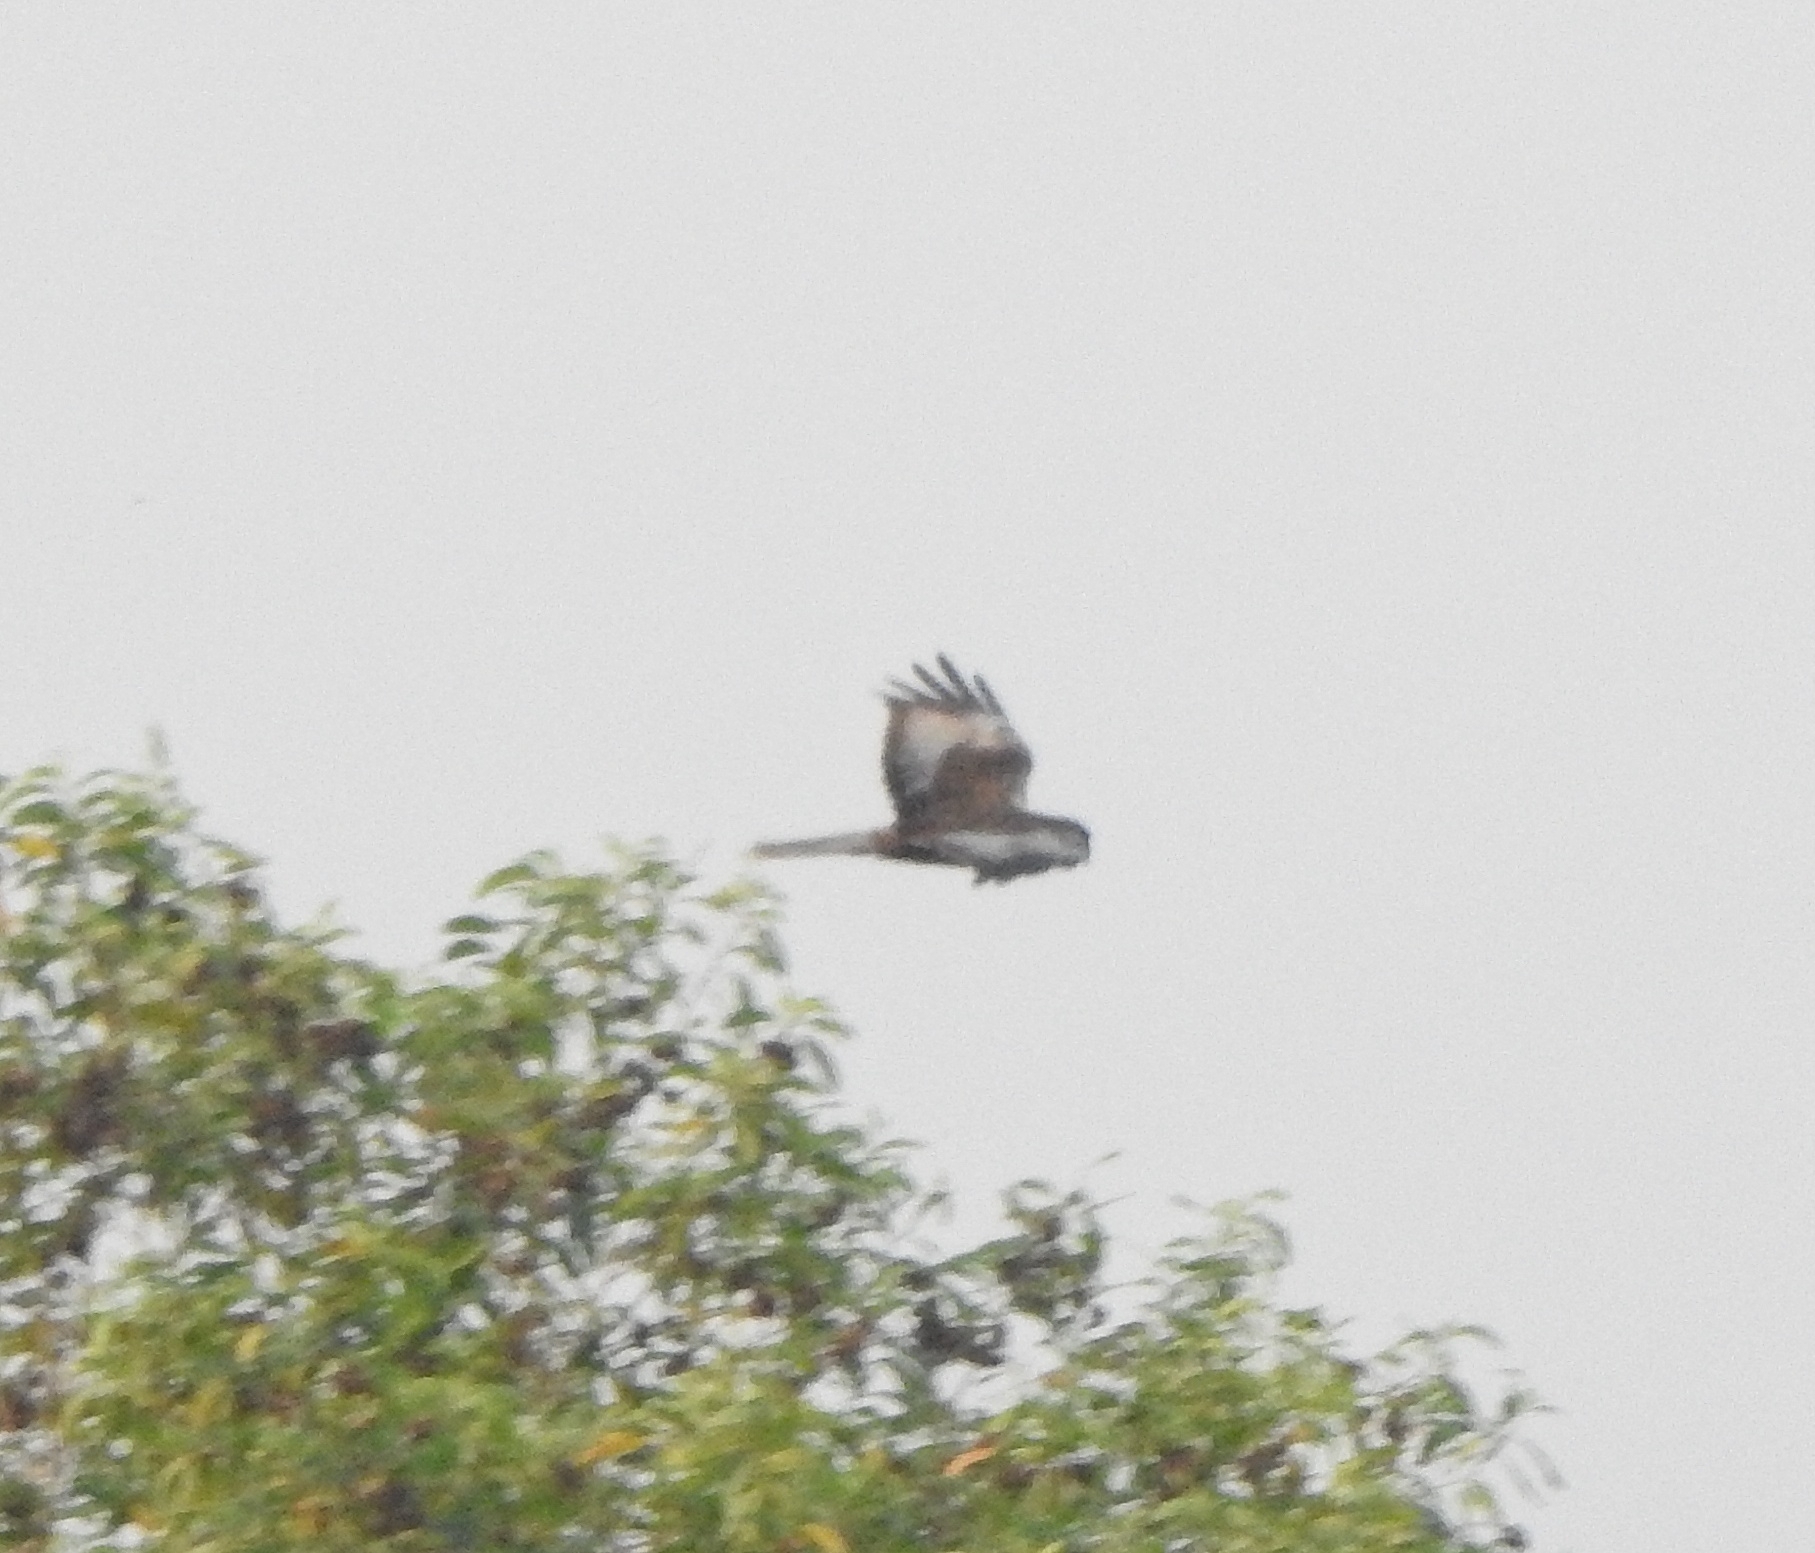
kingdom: Animalia
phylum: Chordata
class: Aves
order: Accipitriformes
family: Accipitridae
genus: Circus
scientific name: Circus aeruginosus
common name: Western marsh harrier
